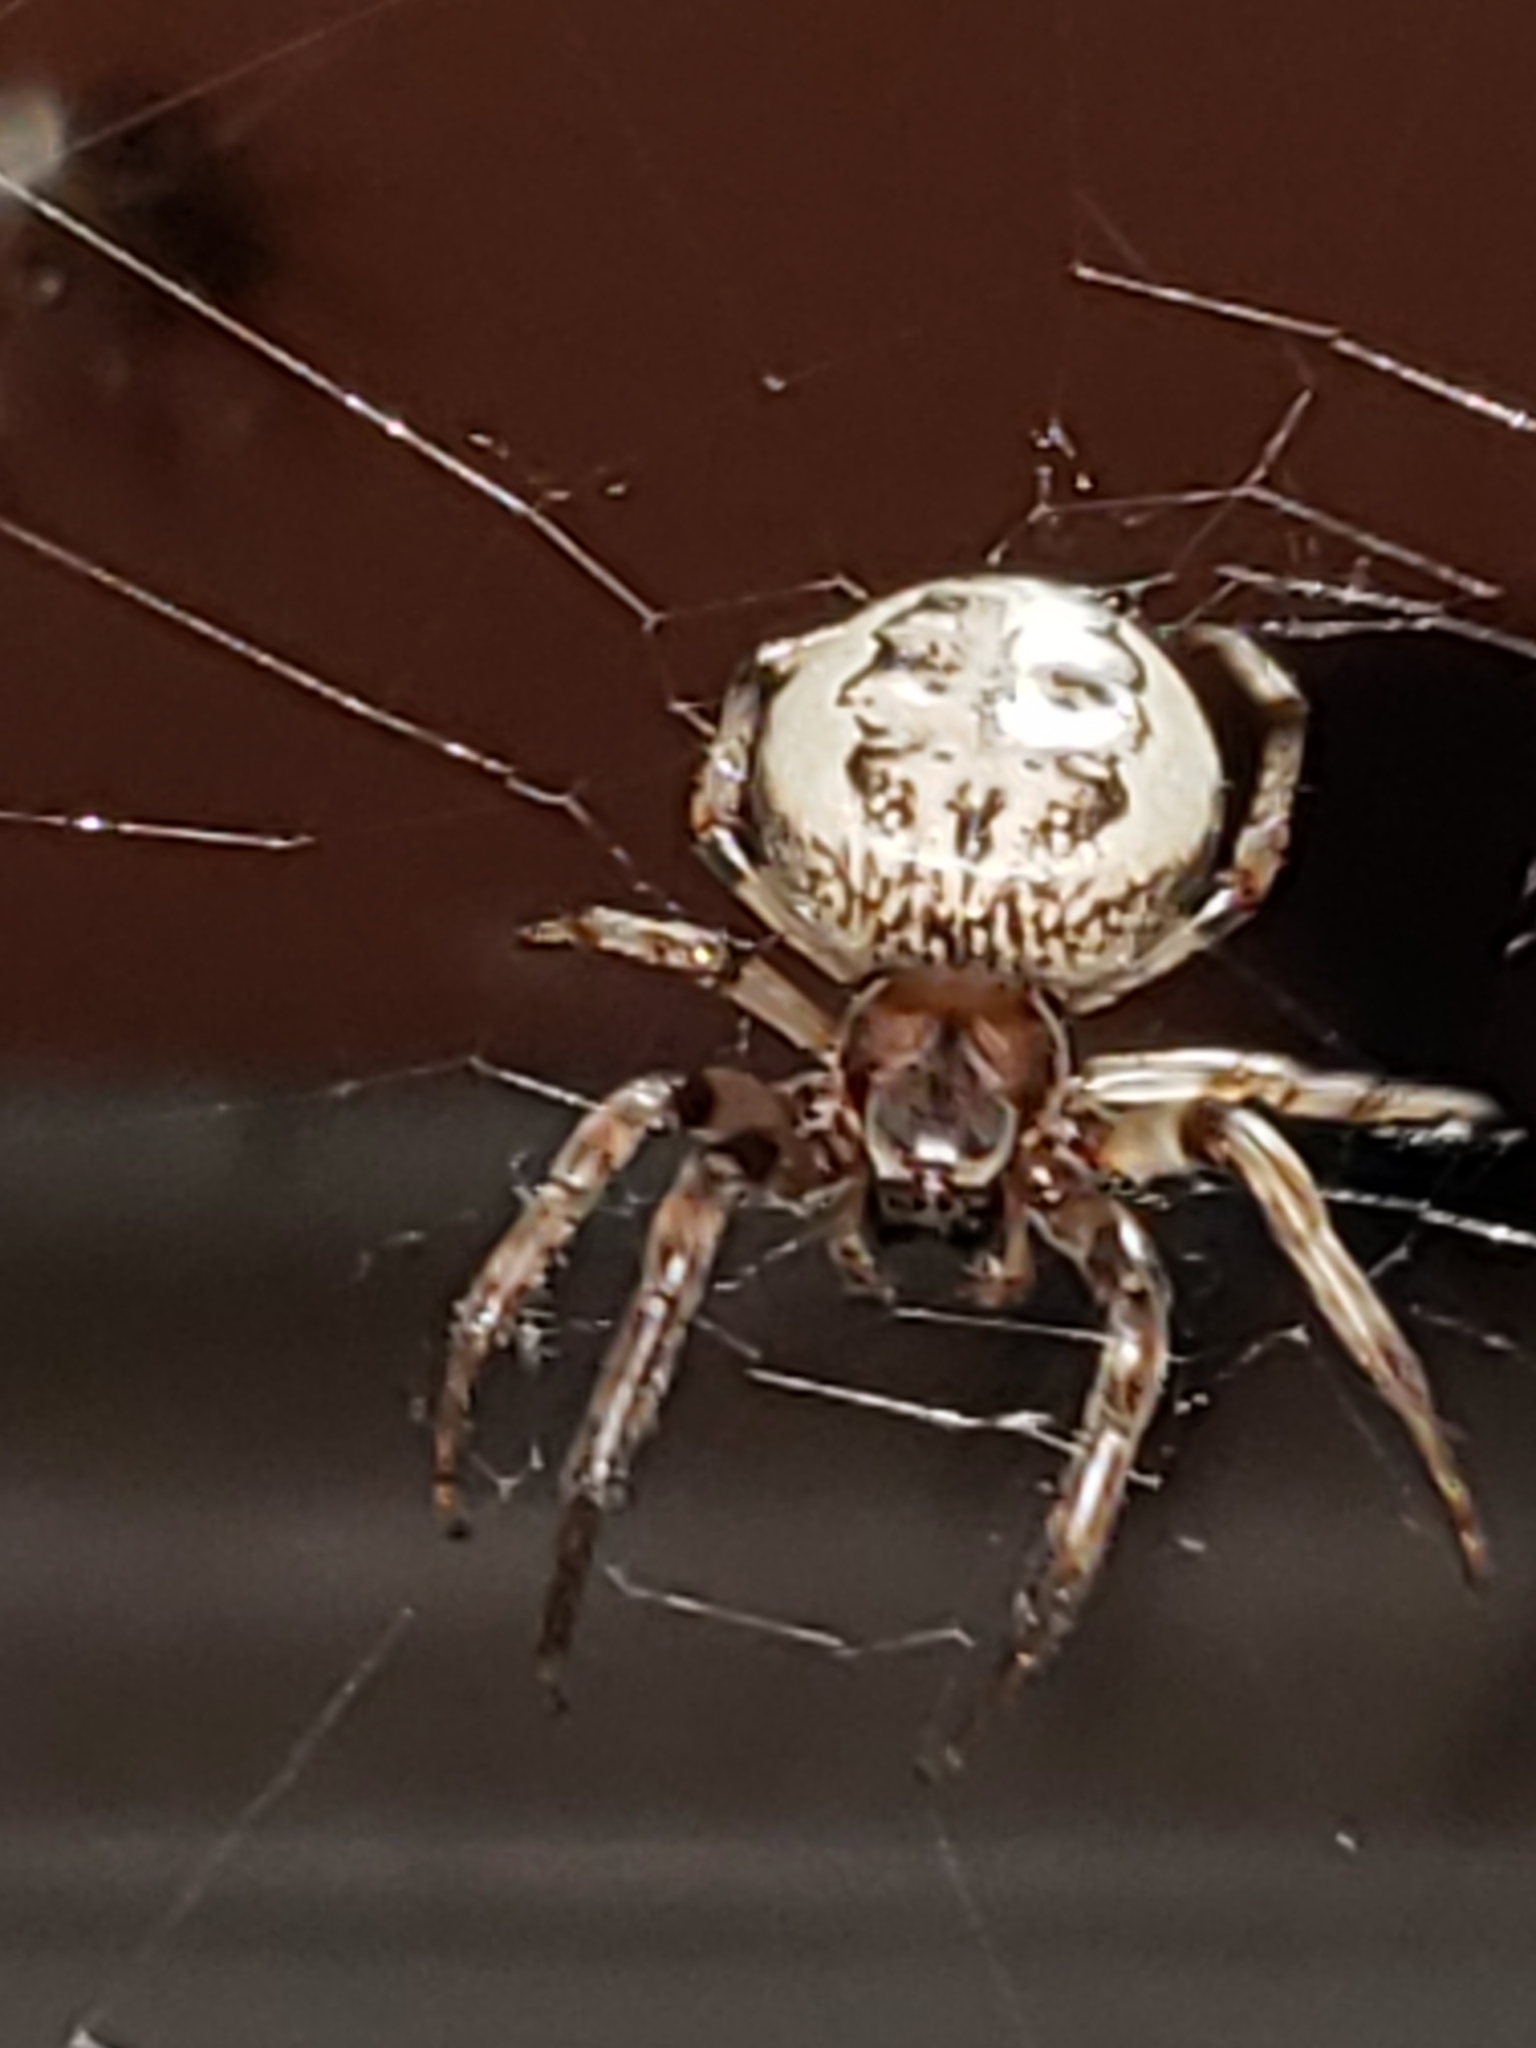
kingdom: Animalia
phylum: Arthropoda
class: Arachnida
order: Araneae
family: Araneidae
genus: Larinioides
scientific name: Larinioides cornutus
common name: Furrow orbweaver
